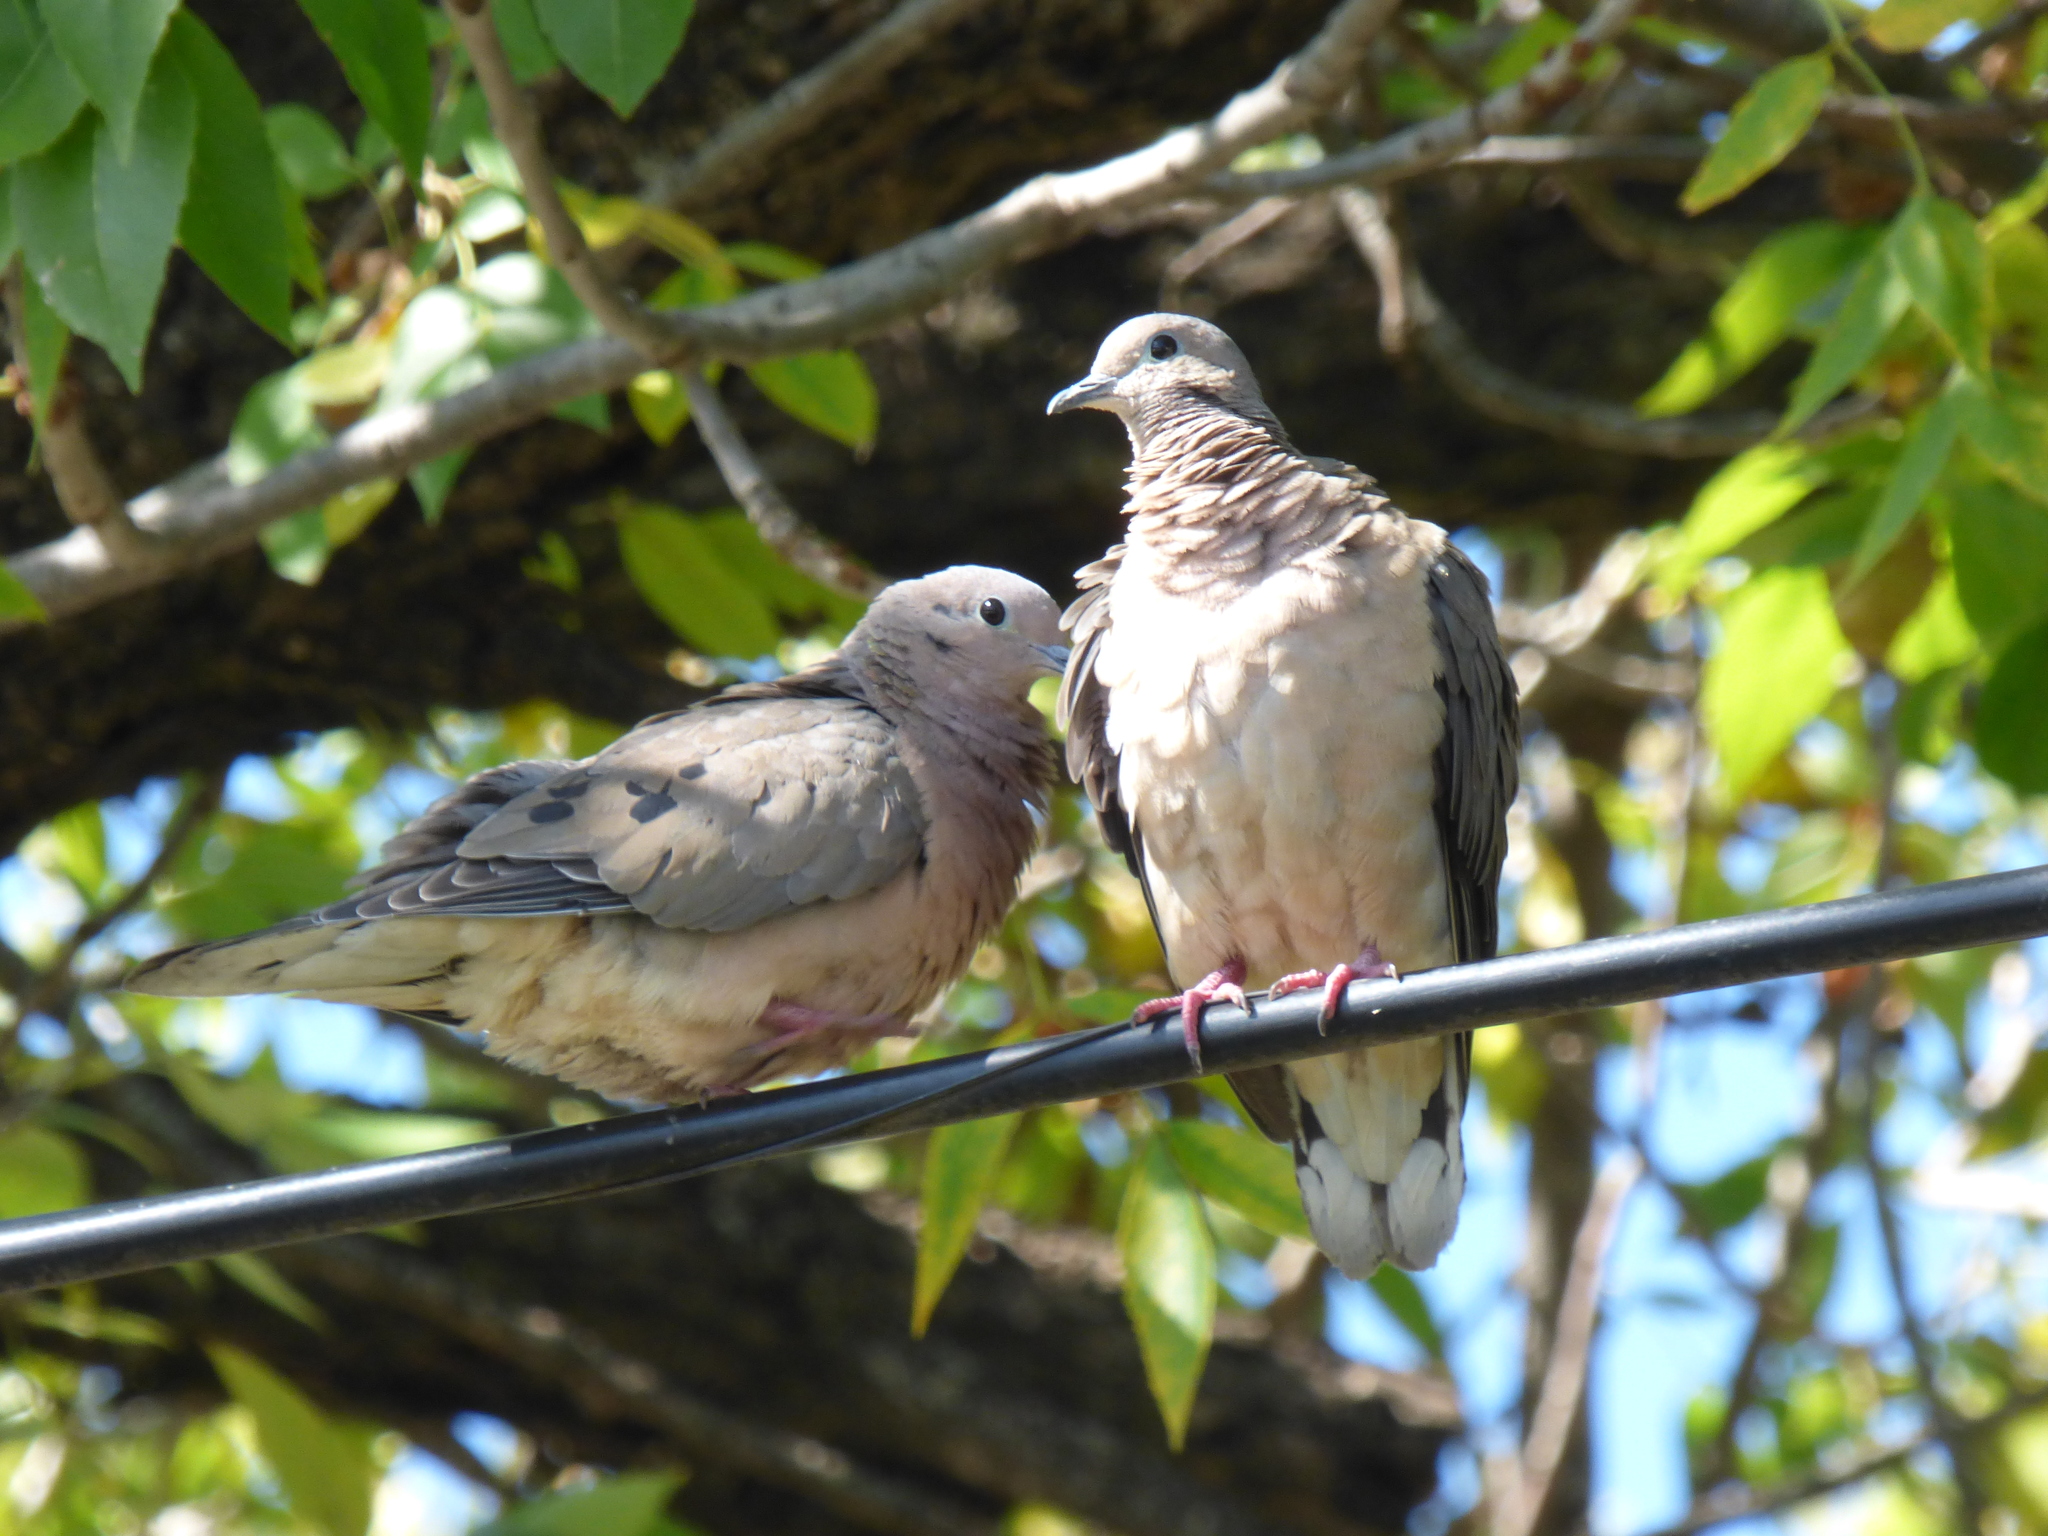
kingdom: Animalia
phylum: Chordata
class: Aves
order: Columbiformes
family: Columbidae
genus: Zenaida
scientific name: Zenaida auriculata
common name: Eared dove
